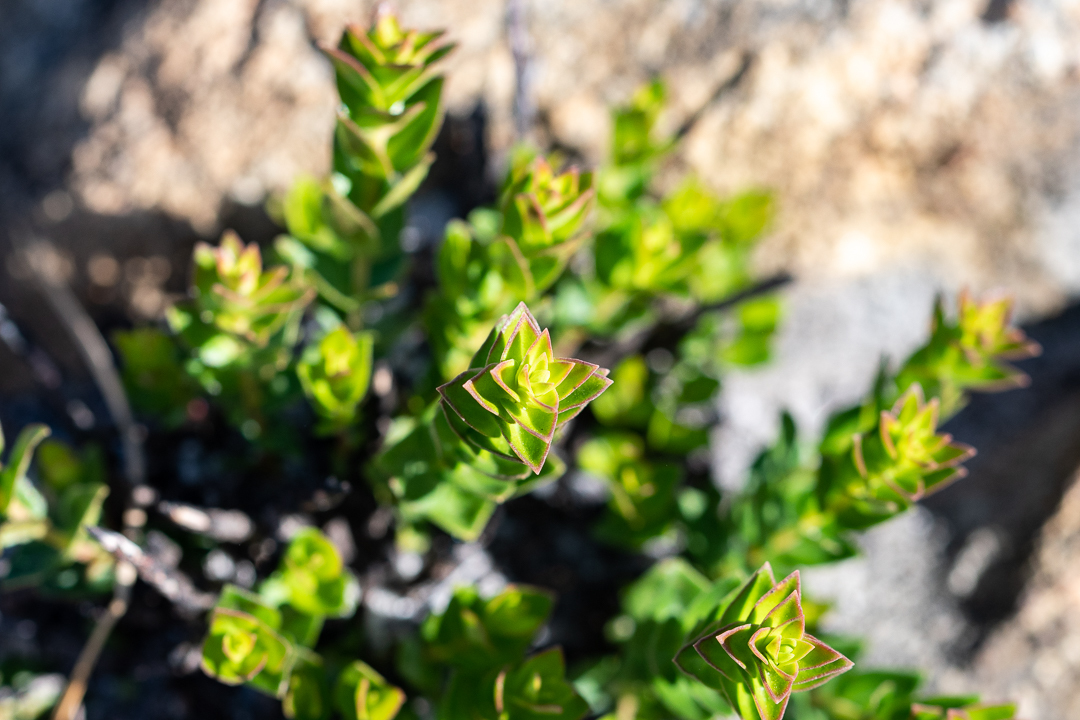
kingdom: Plantae
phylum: Tracheophyta
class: Magnoliopsida
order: Myrtales
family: Penaeaceae
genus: Penaea
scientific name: Penaea mucronata
